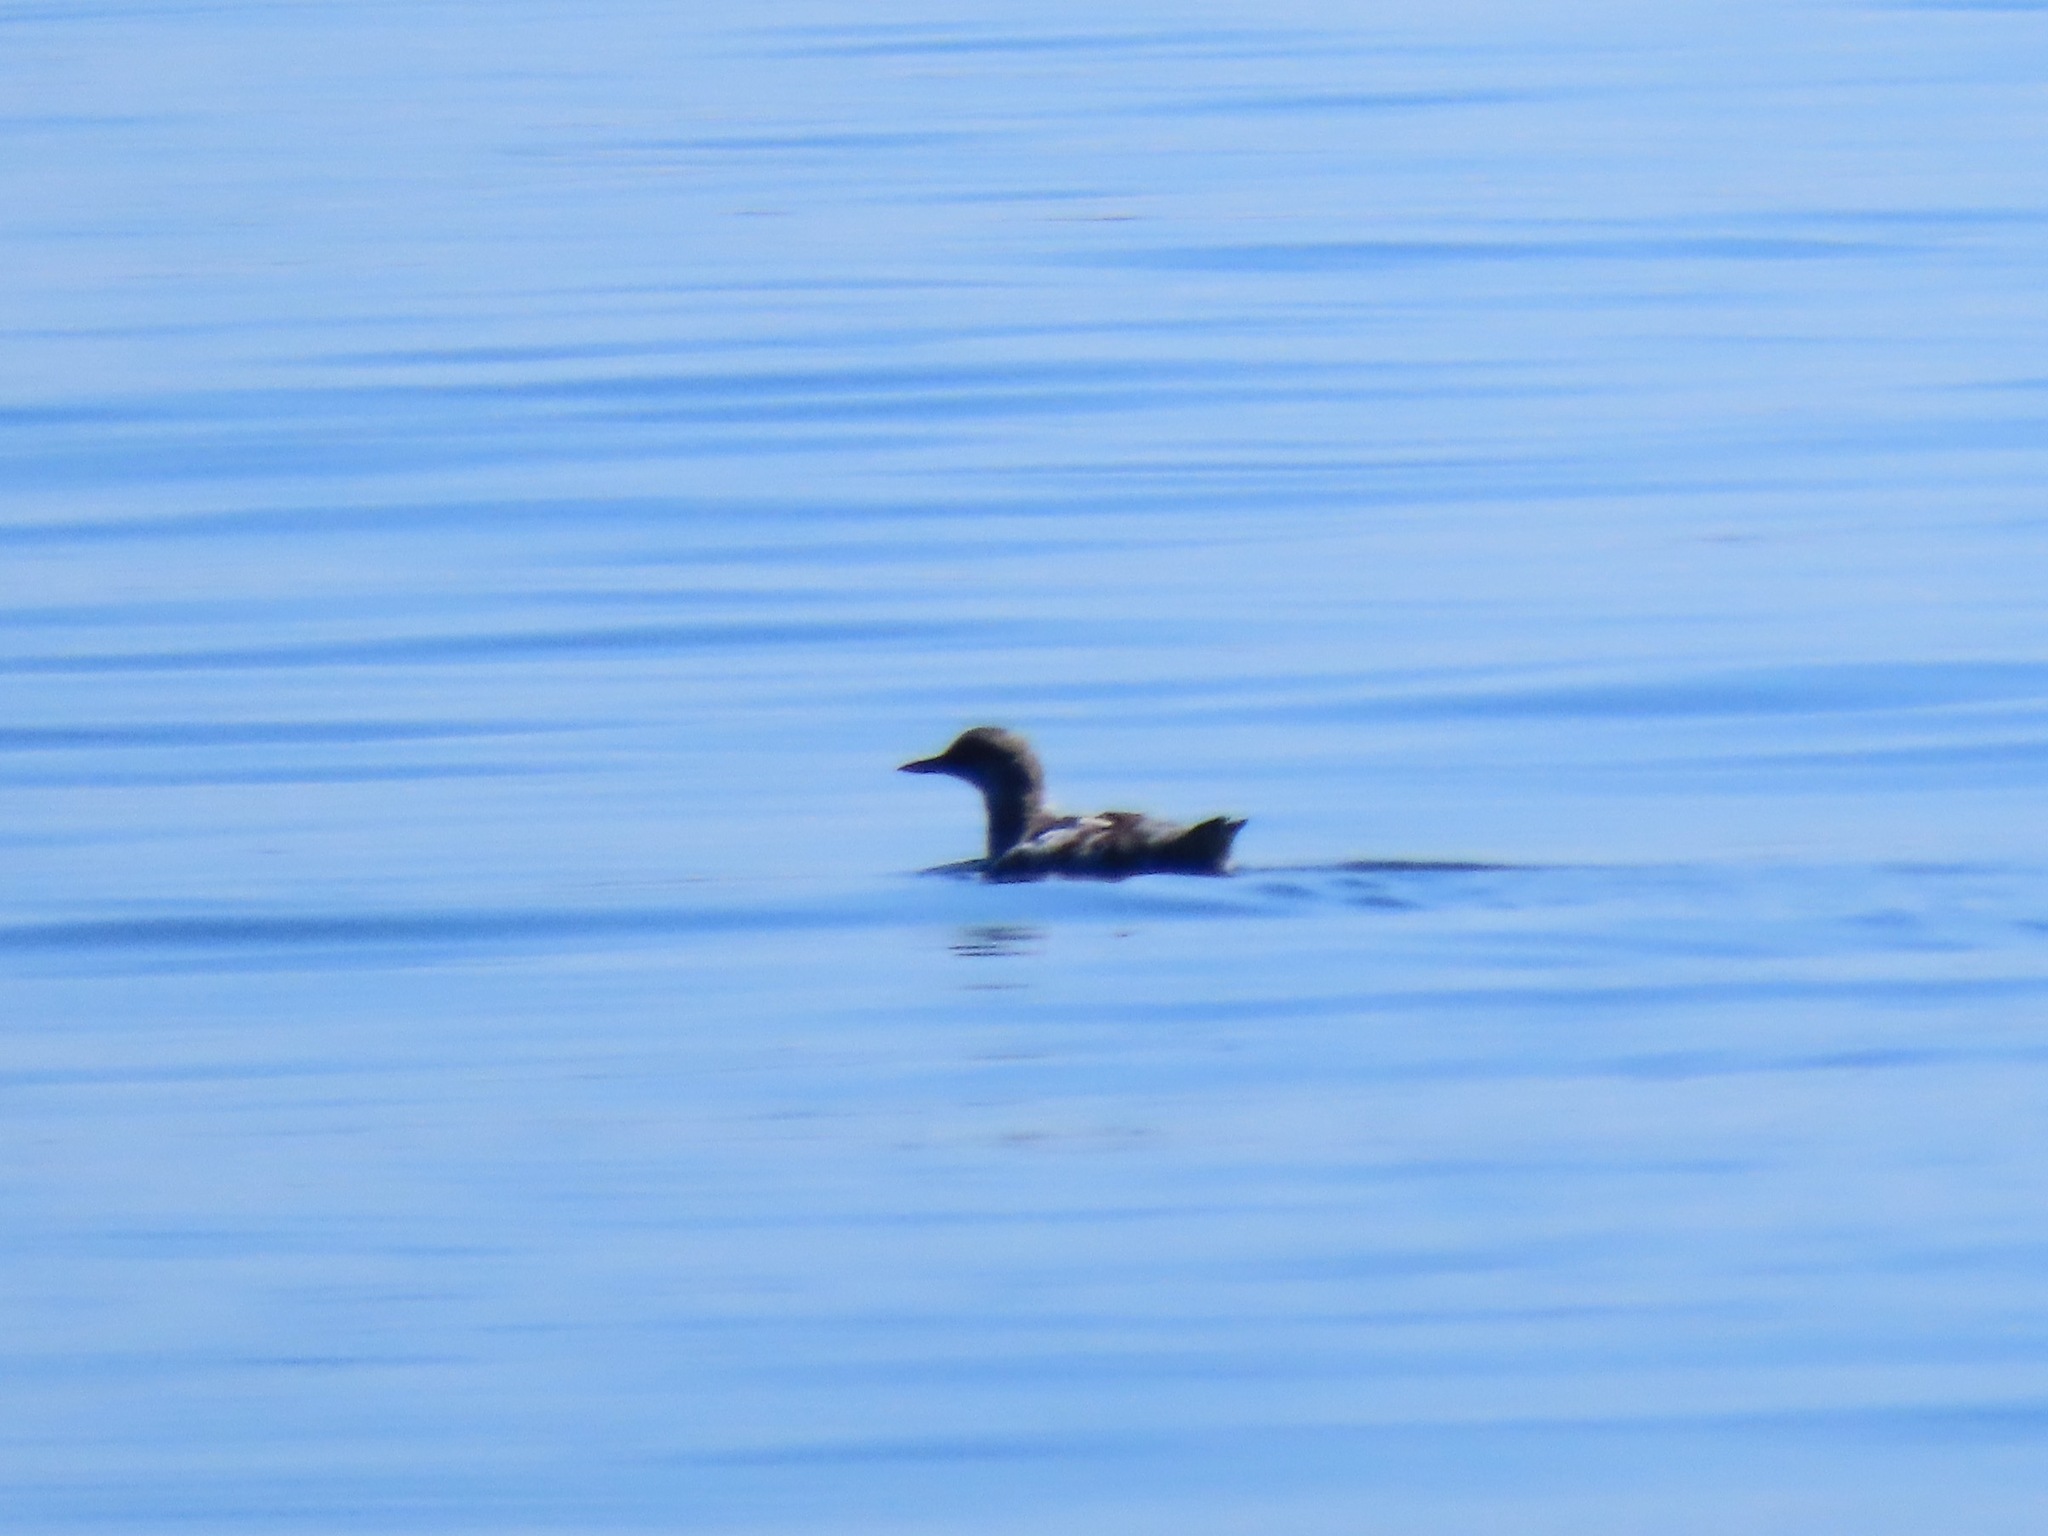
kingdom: Animalia
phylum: Chordata
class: Aves
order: Charadriiformes
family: Alcidae
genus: Cepphus
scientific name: Cepphus columba
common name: Pigeon guillemot
